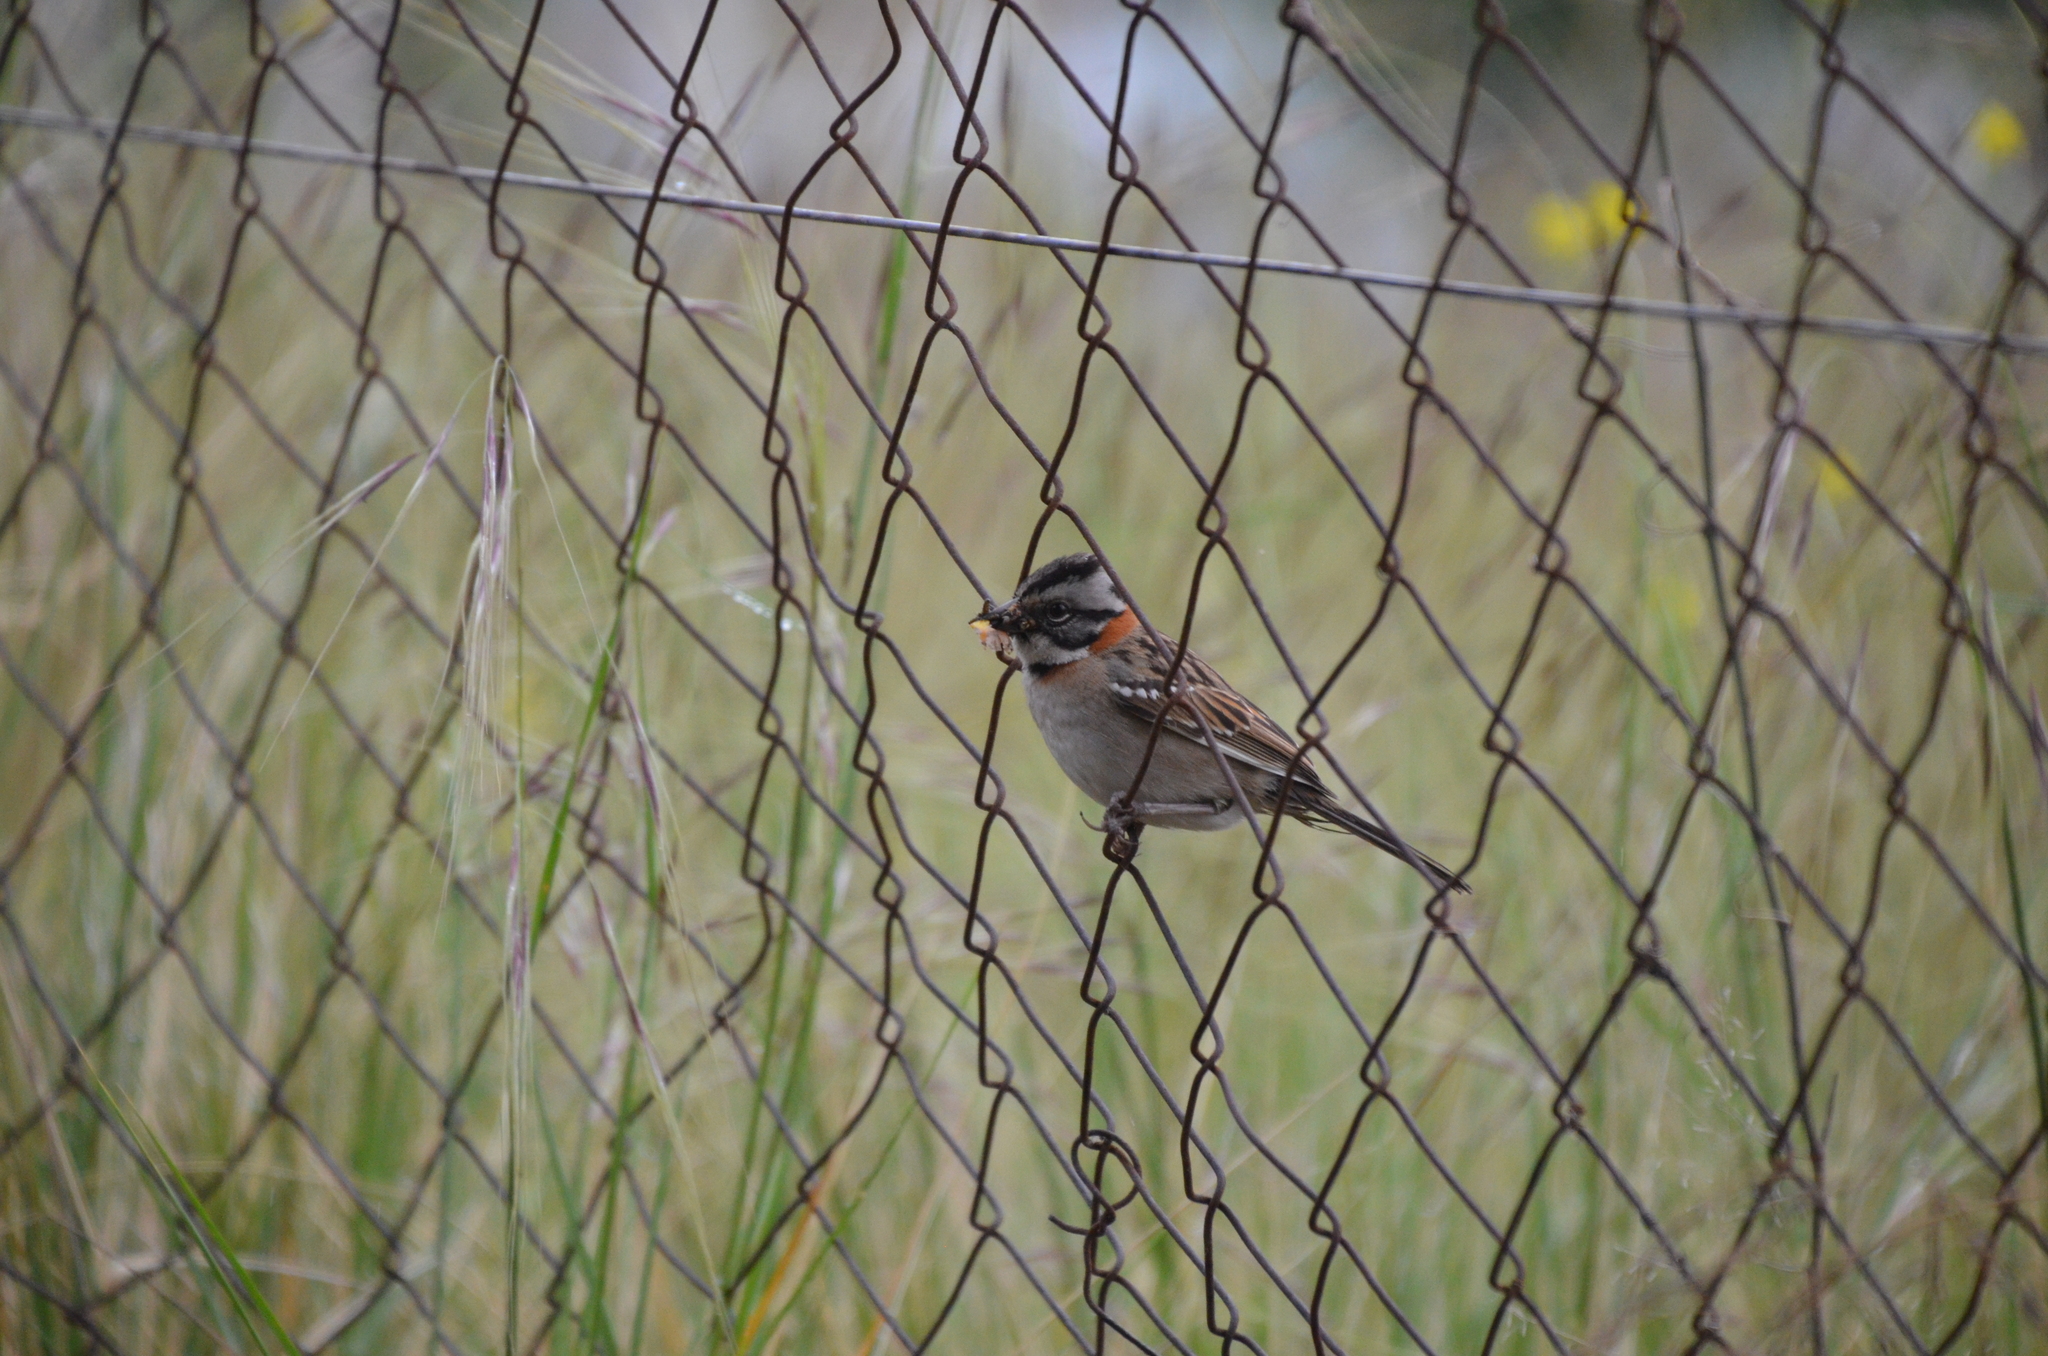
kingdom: Animalia
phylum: Chordata
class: Aves
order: Passeriformes
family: Passerellidae
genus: Zonotrichia
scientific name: Zonotrichia capensis
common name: Rufous-collared sparrow
